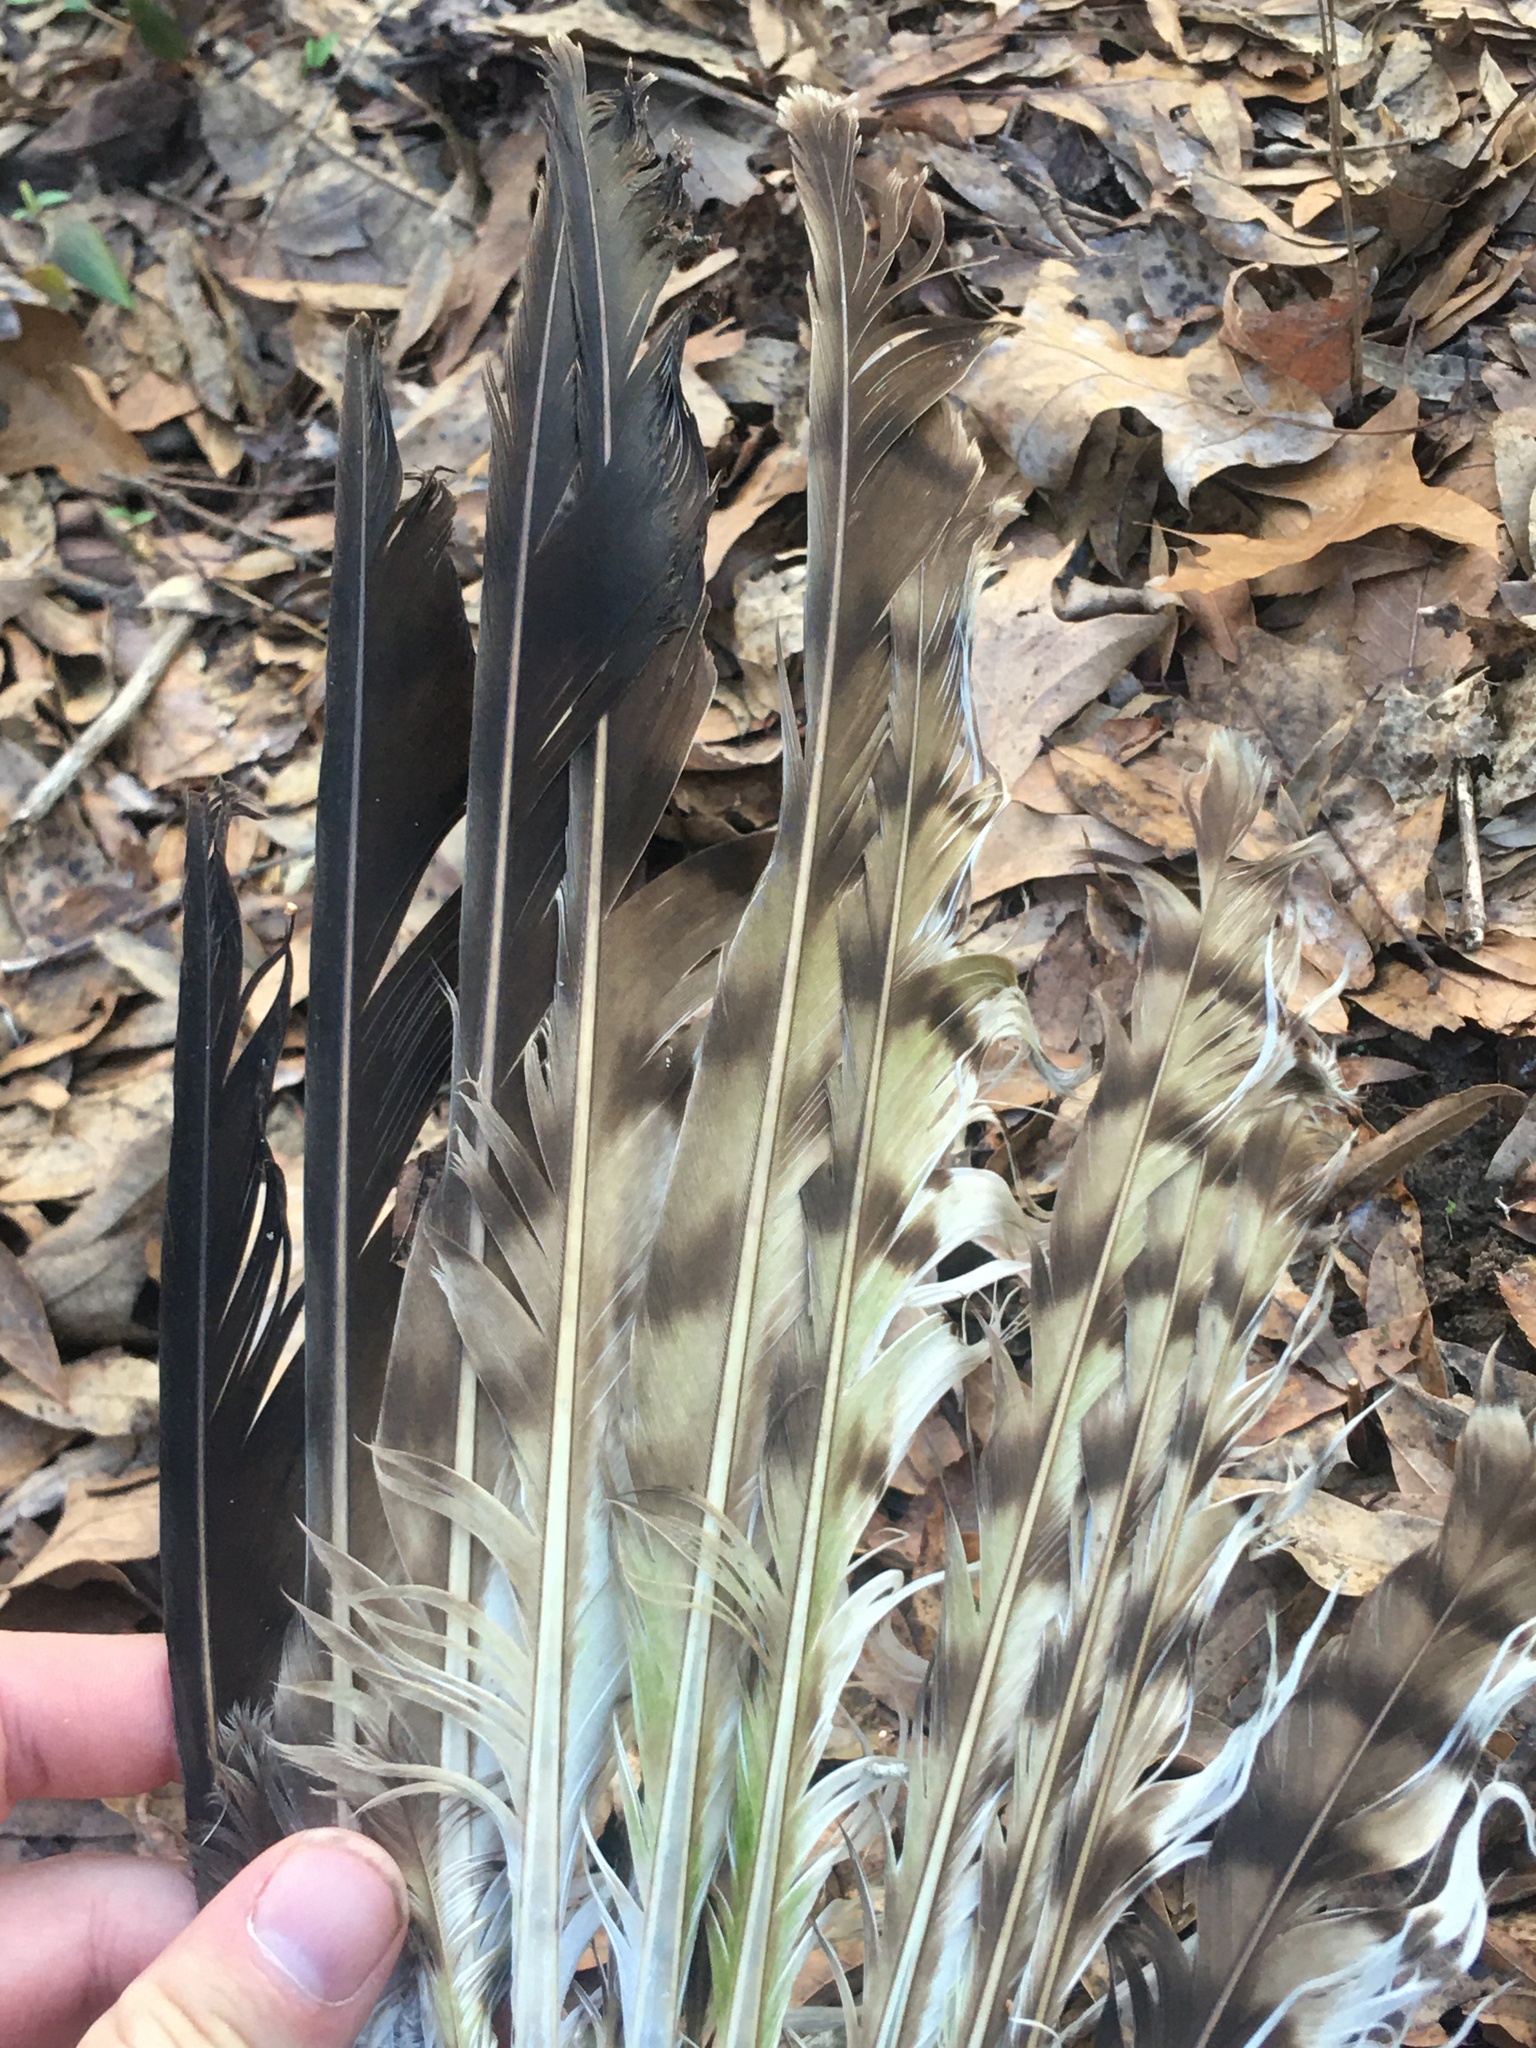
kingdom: Animalia
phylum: Chordata
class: Aves
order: Accipitriformes
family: Accipitridae
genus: Buteo
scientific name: Buteo jamaicensis
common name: Red-tailed hawk
